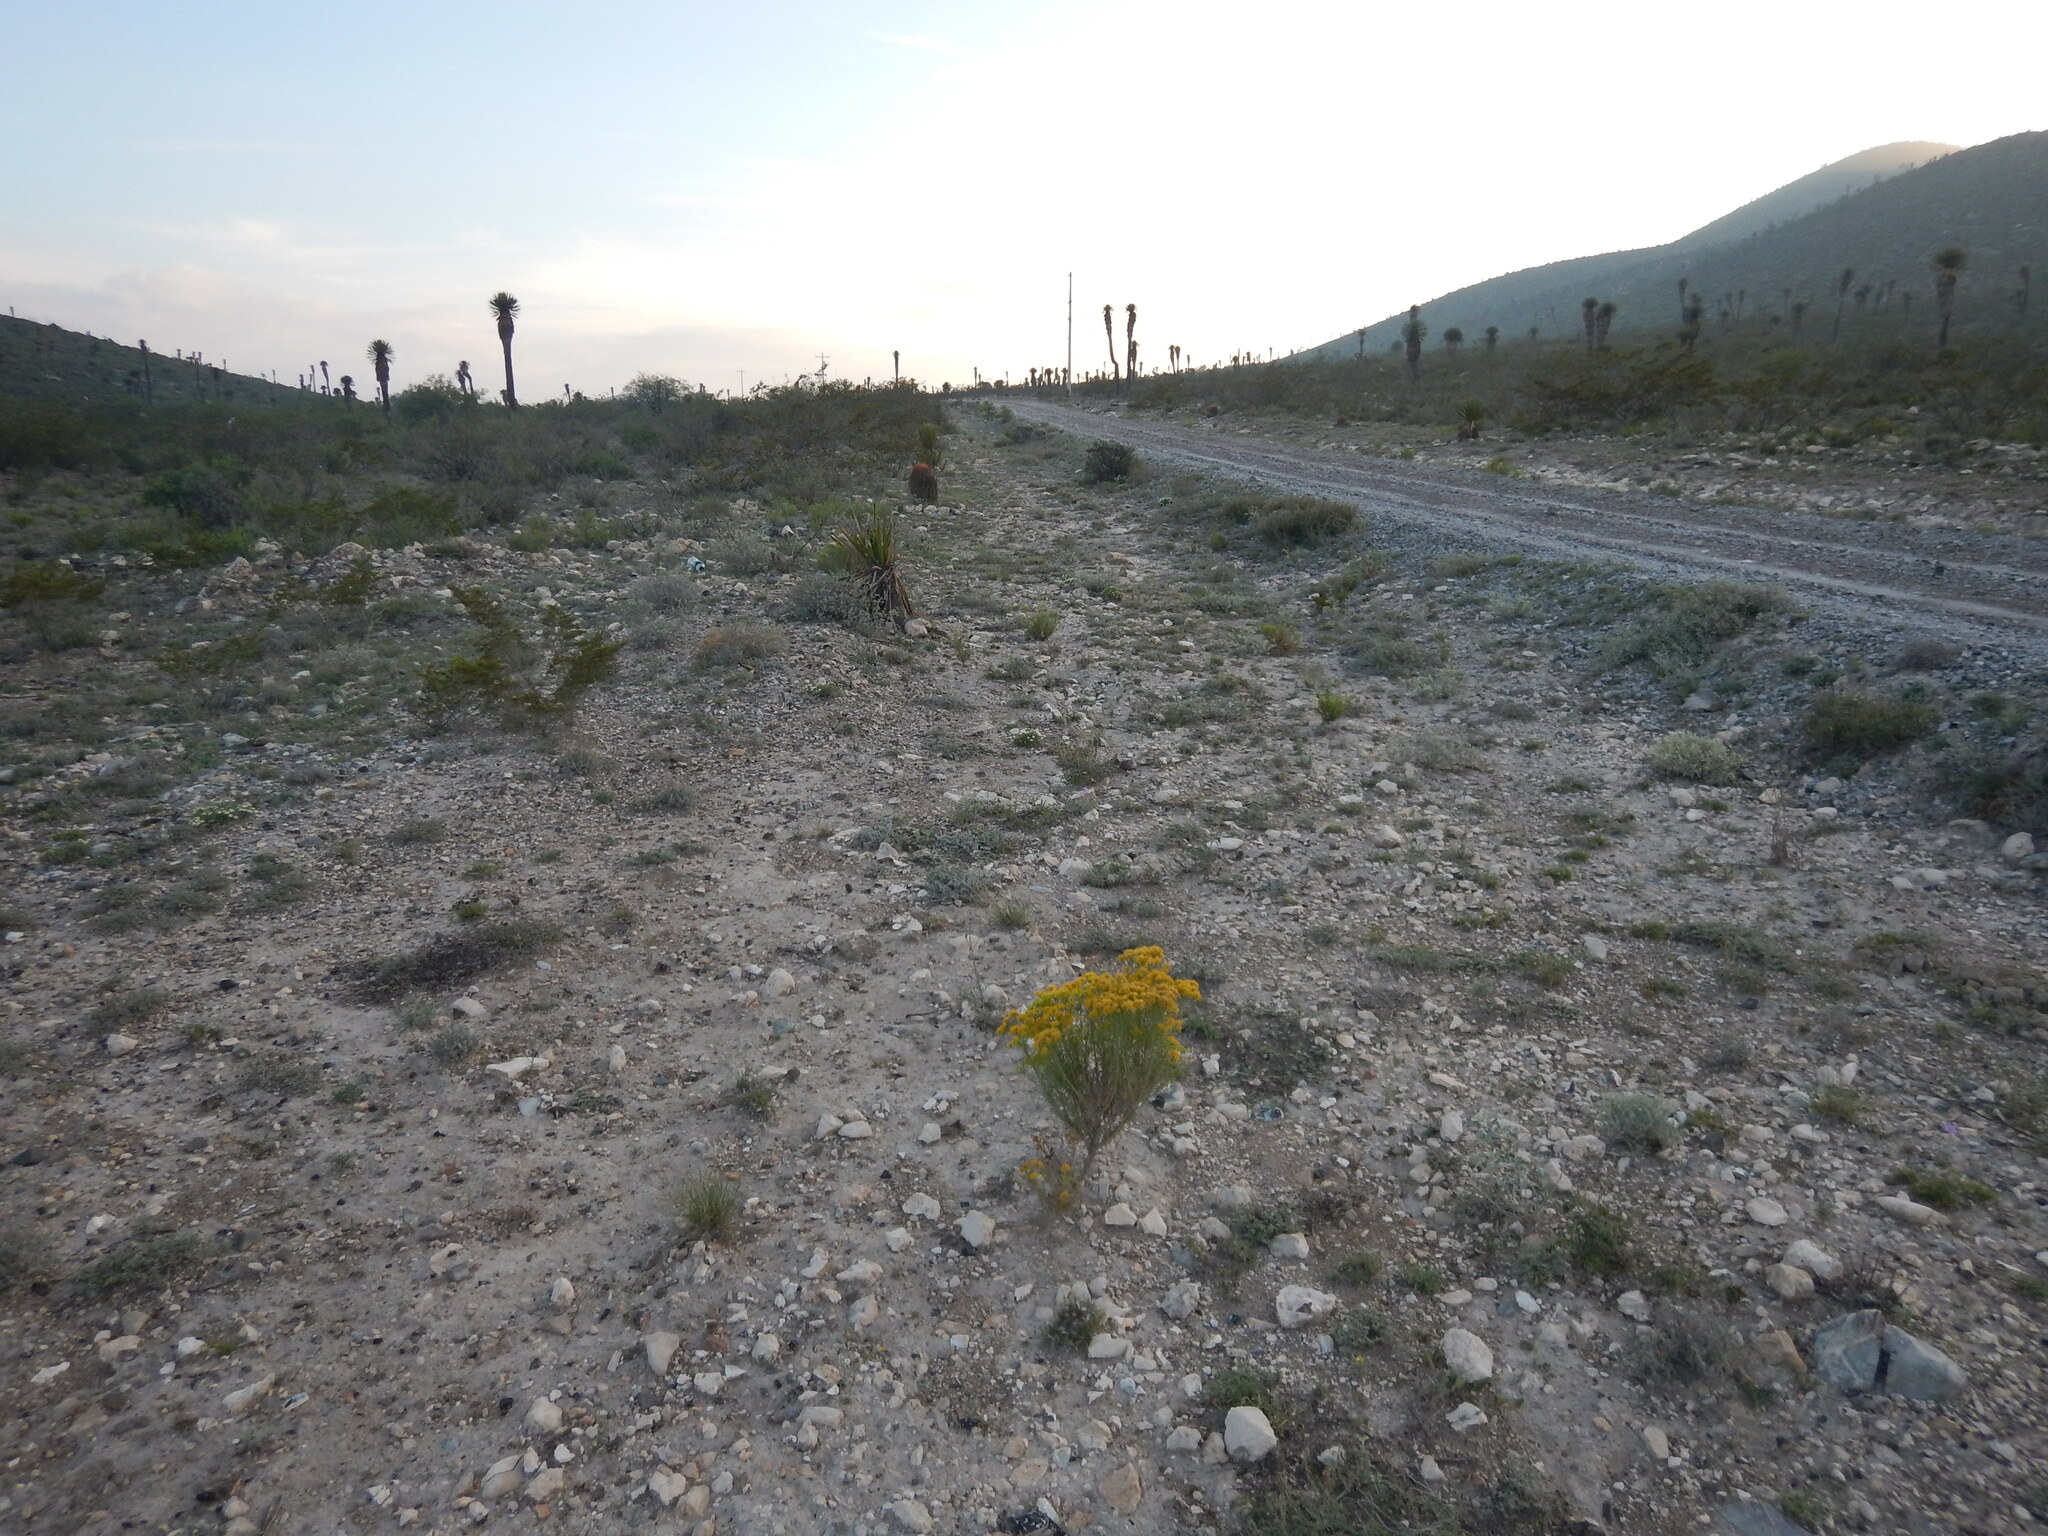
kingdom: Plantae
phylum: Tracheophyta
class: Magnoliopsida
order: Asterales
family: Asteraceae
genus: Gymnosperma
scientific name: Gymnosperma glutinosum
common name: Gumhead
